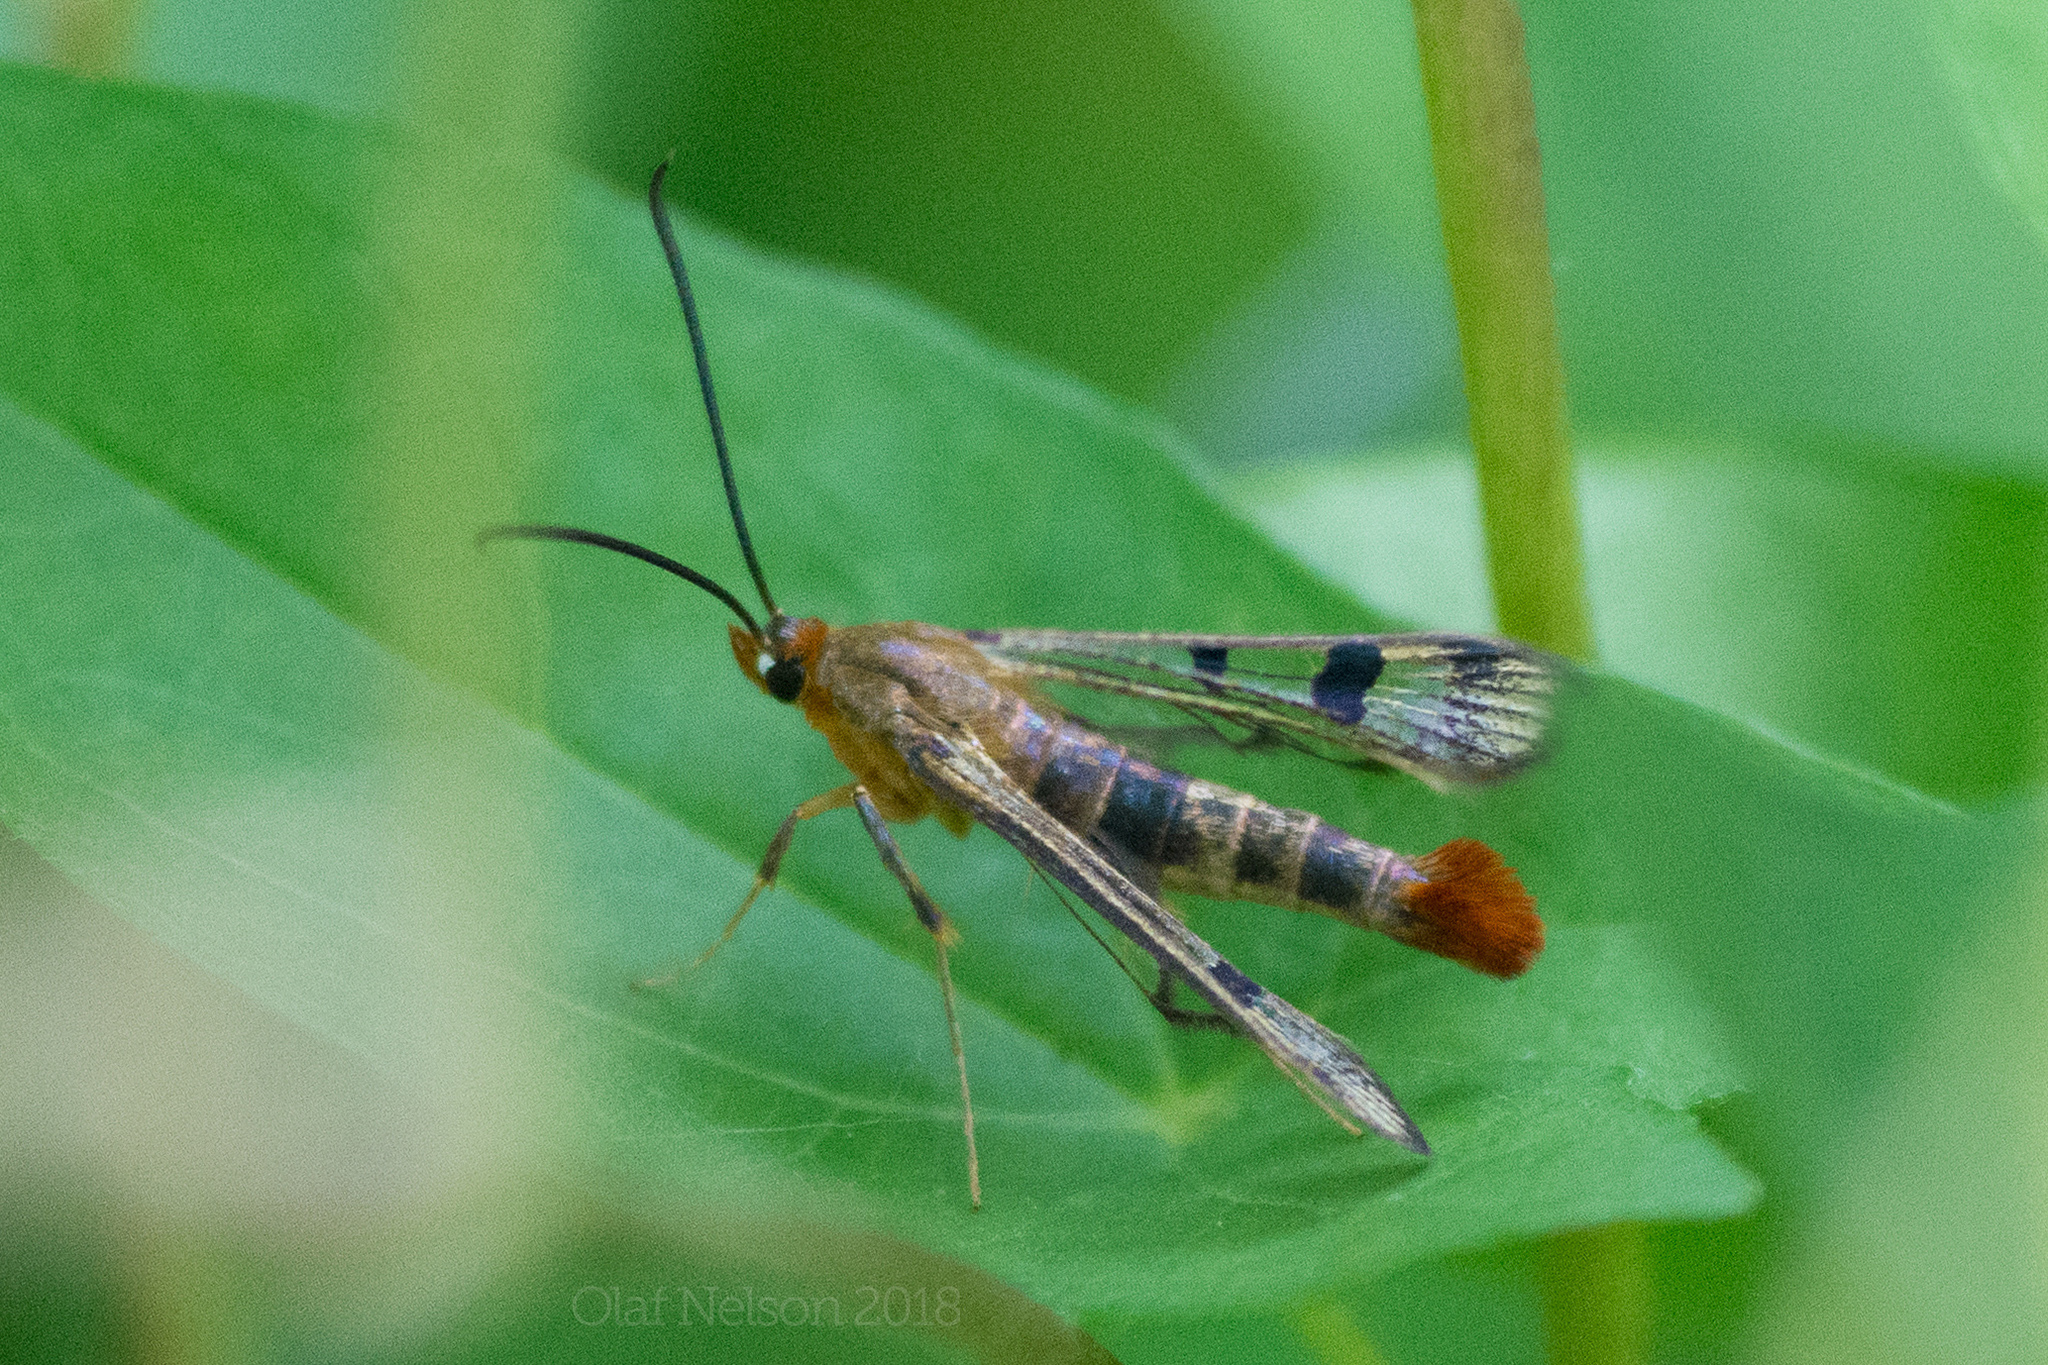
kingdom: Animalia
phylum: Arthropoda
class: Insecta
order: Lepidoptera
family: Sesiidae
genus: Synanthedon
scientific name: Synanthedon acerni
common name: Maple callus borer moth
